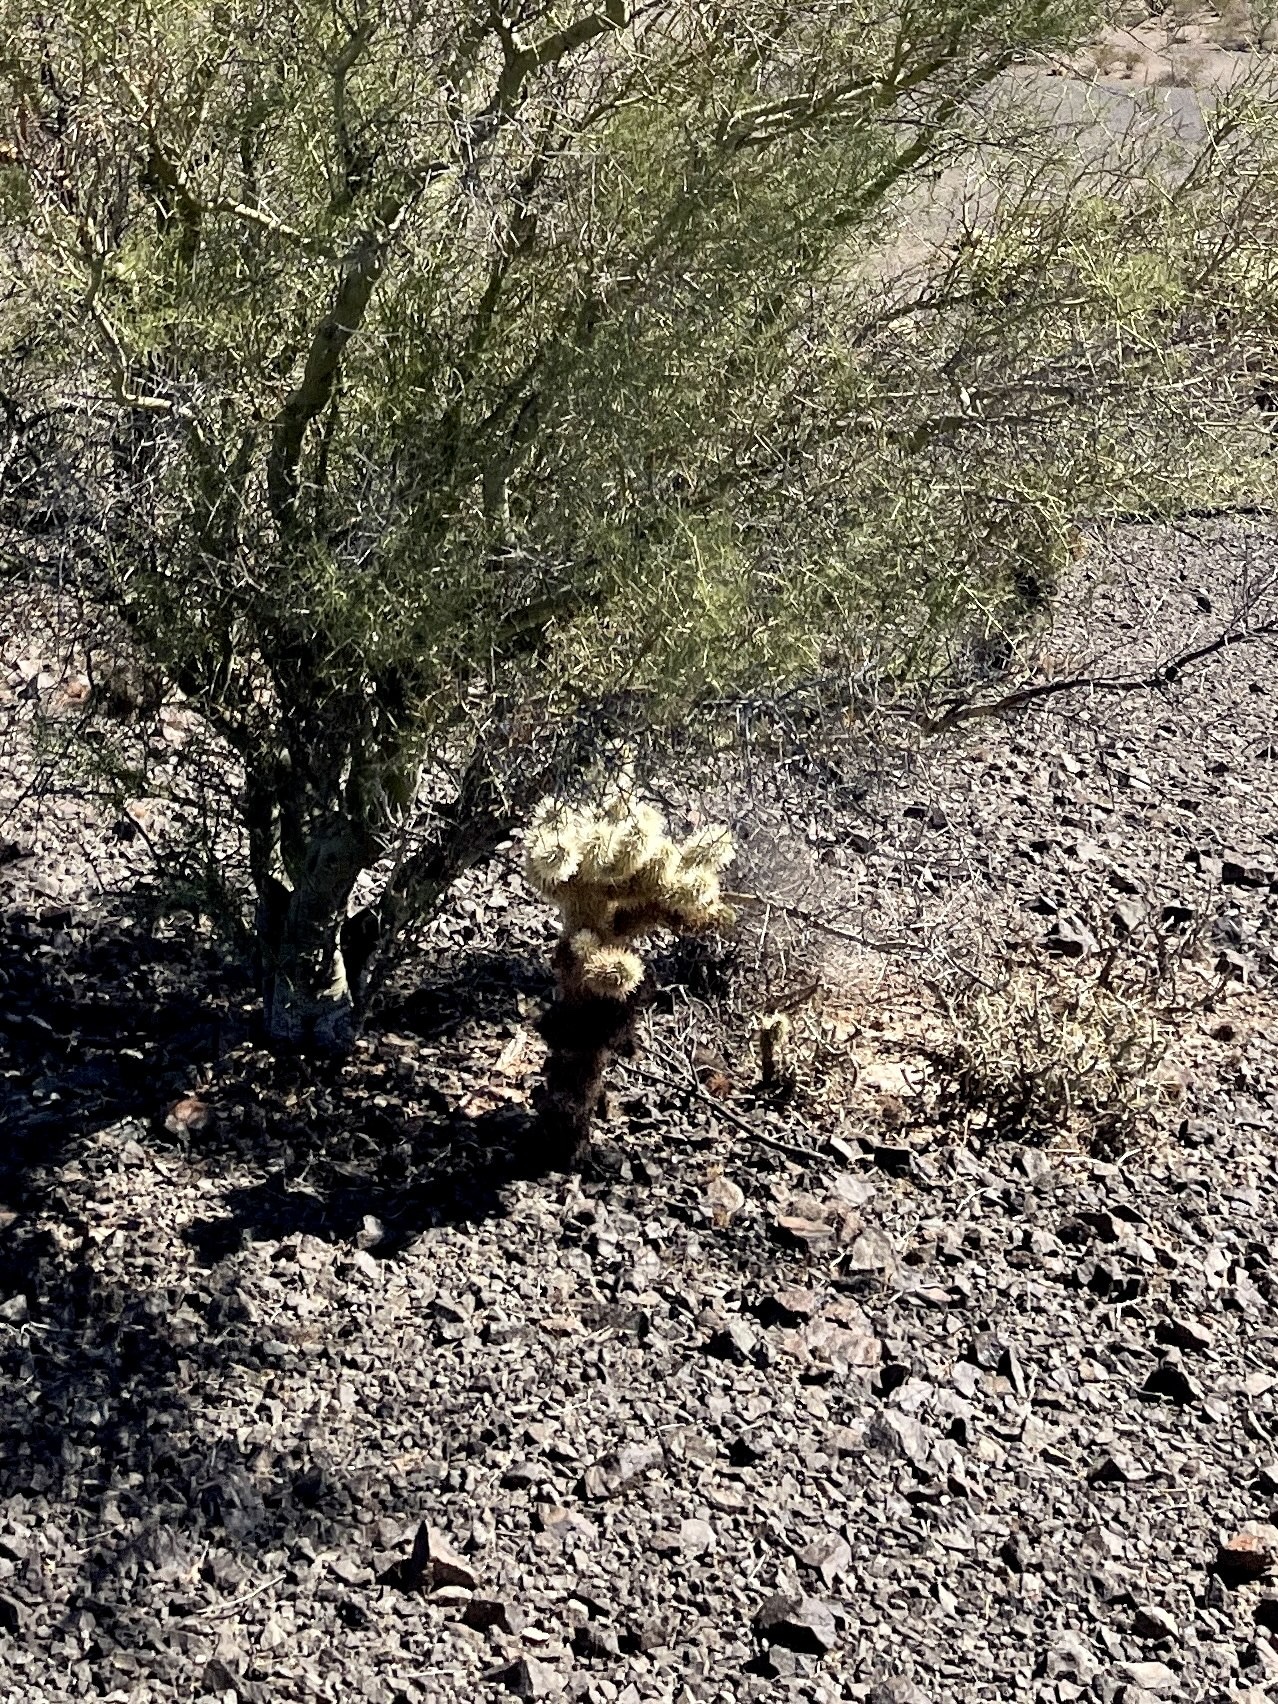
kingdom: Plantae
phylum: Tracheophyta
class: Magnoliopsida
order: Caryophyllales
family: Cactaceae
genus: Cylindropuntia
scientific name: Cylindropuntia fosbergii
